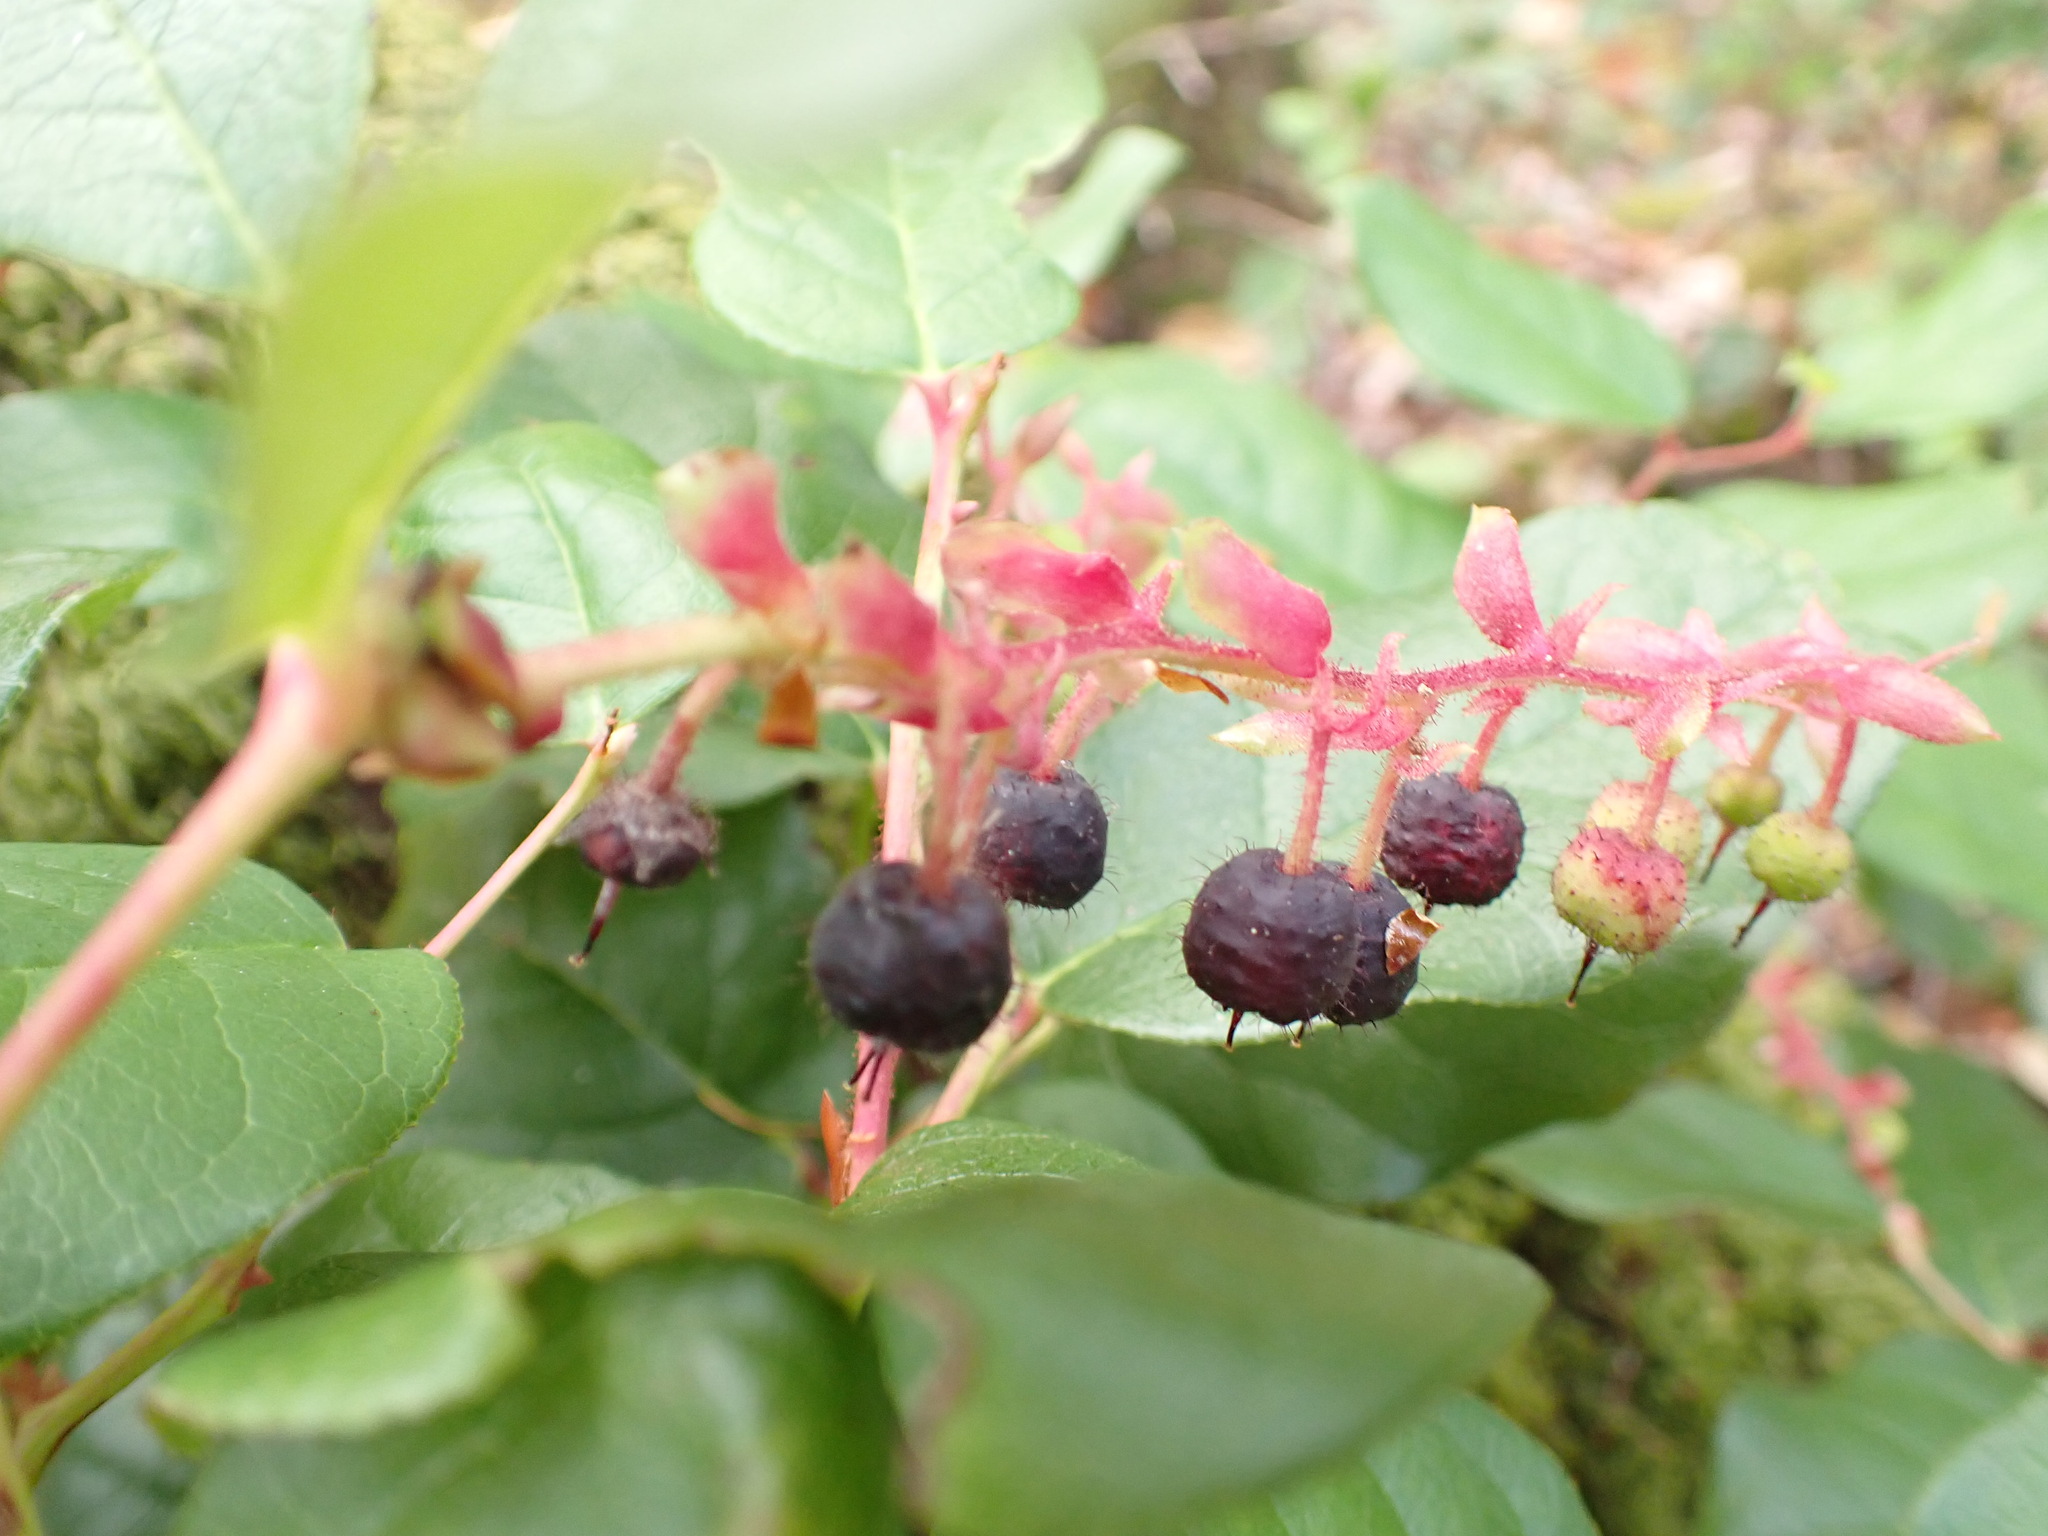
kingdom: Plantae
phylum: Tracheophyta
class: Magnoliopsida
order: Ericales
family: Ericaceae
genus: Gaultheria
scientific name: Gaultheria shallon
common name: Shallon
